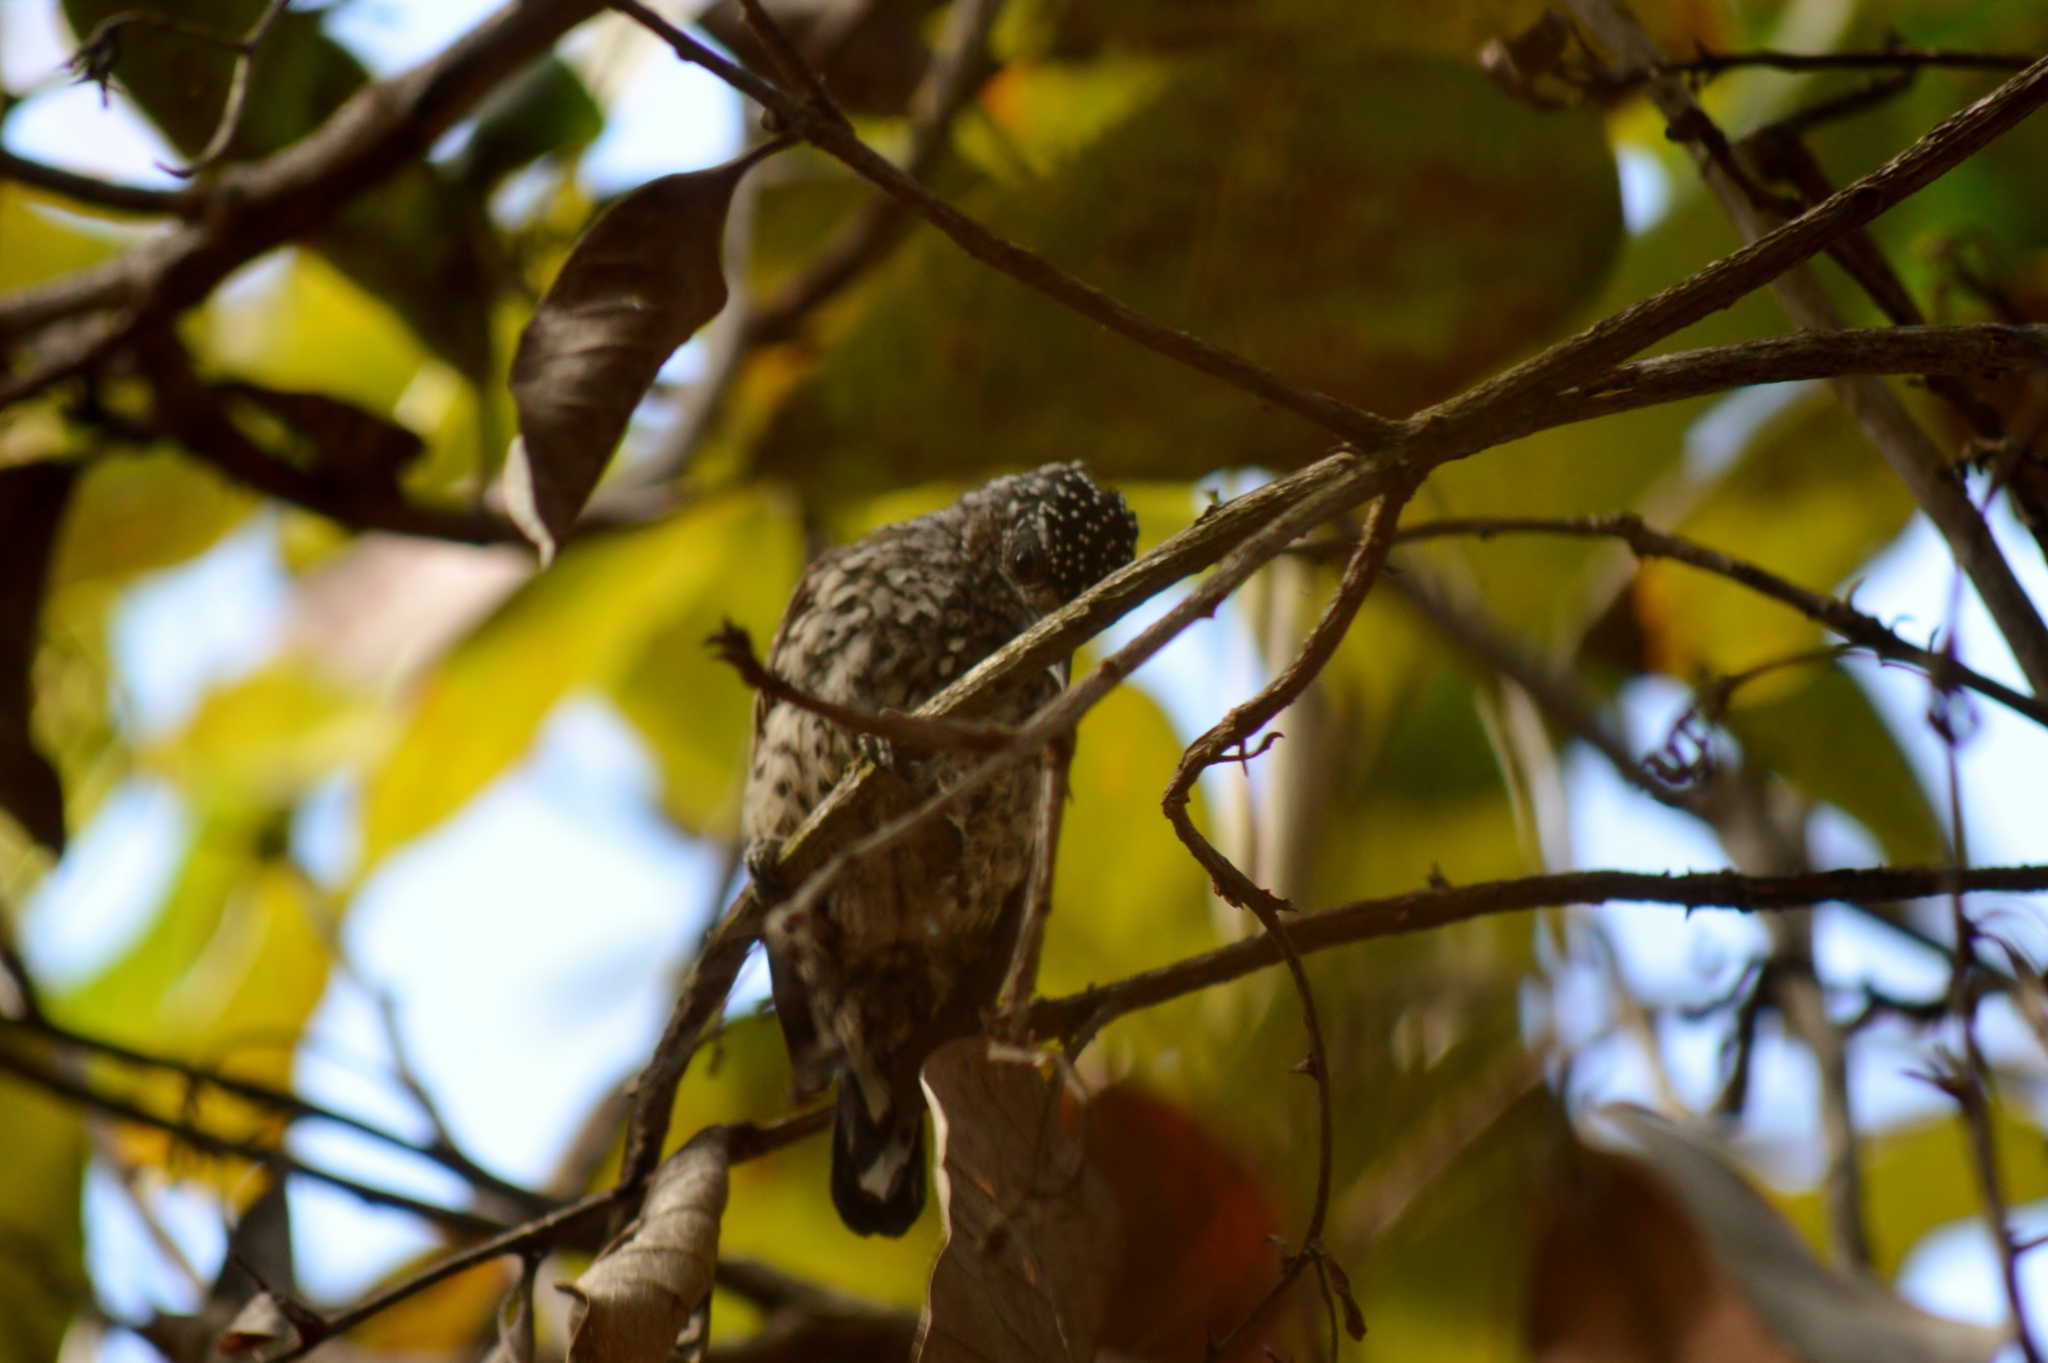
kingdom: Animalia
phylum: Chordata
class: Aves
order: Piciformes
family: Picidae
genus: Picumnus
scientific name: Picumnus albosquamatus
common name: White-wedged piculet
